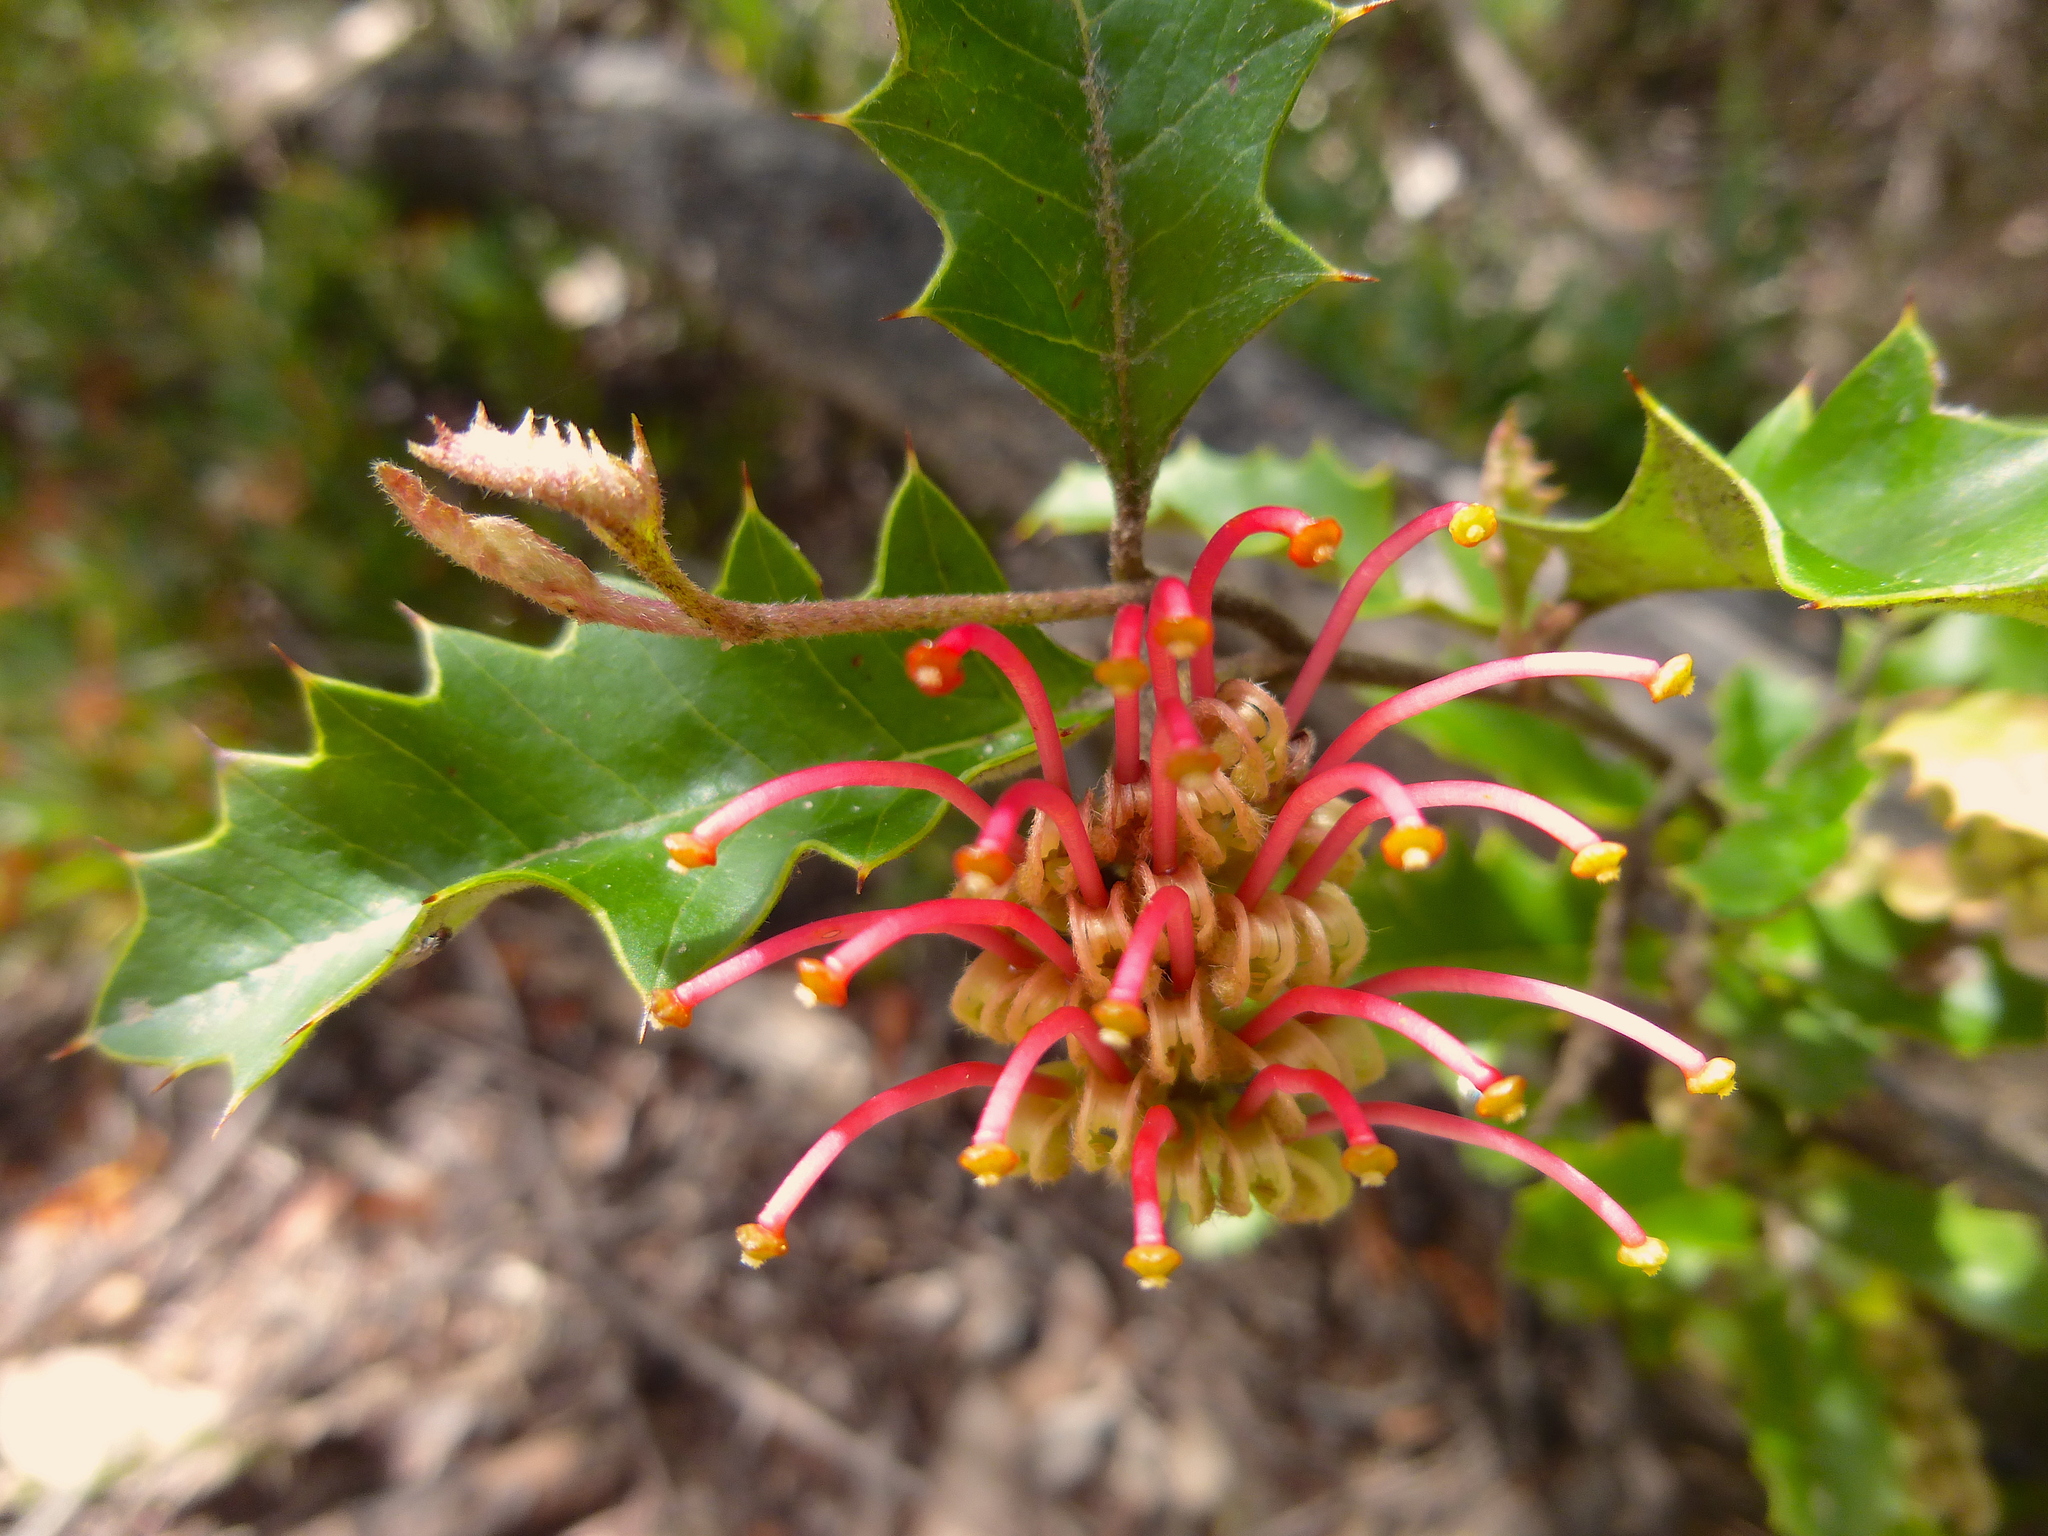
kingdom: Plantae
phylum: Tracheophyta
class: Magnoliopsida
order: Proteales
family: Proteaceae
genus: Grevillea
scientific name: Grevillea aquifolium
